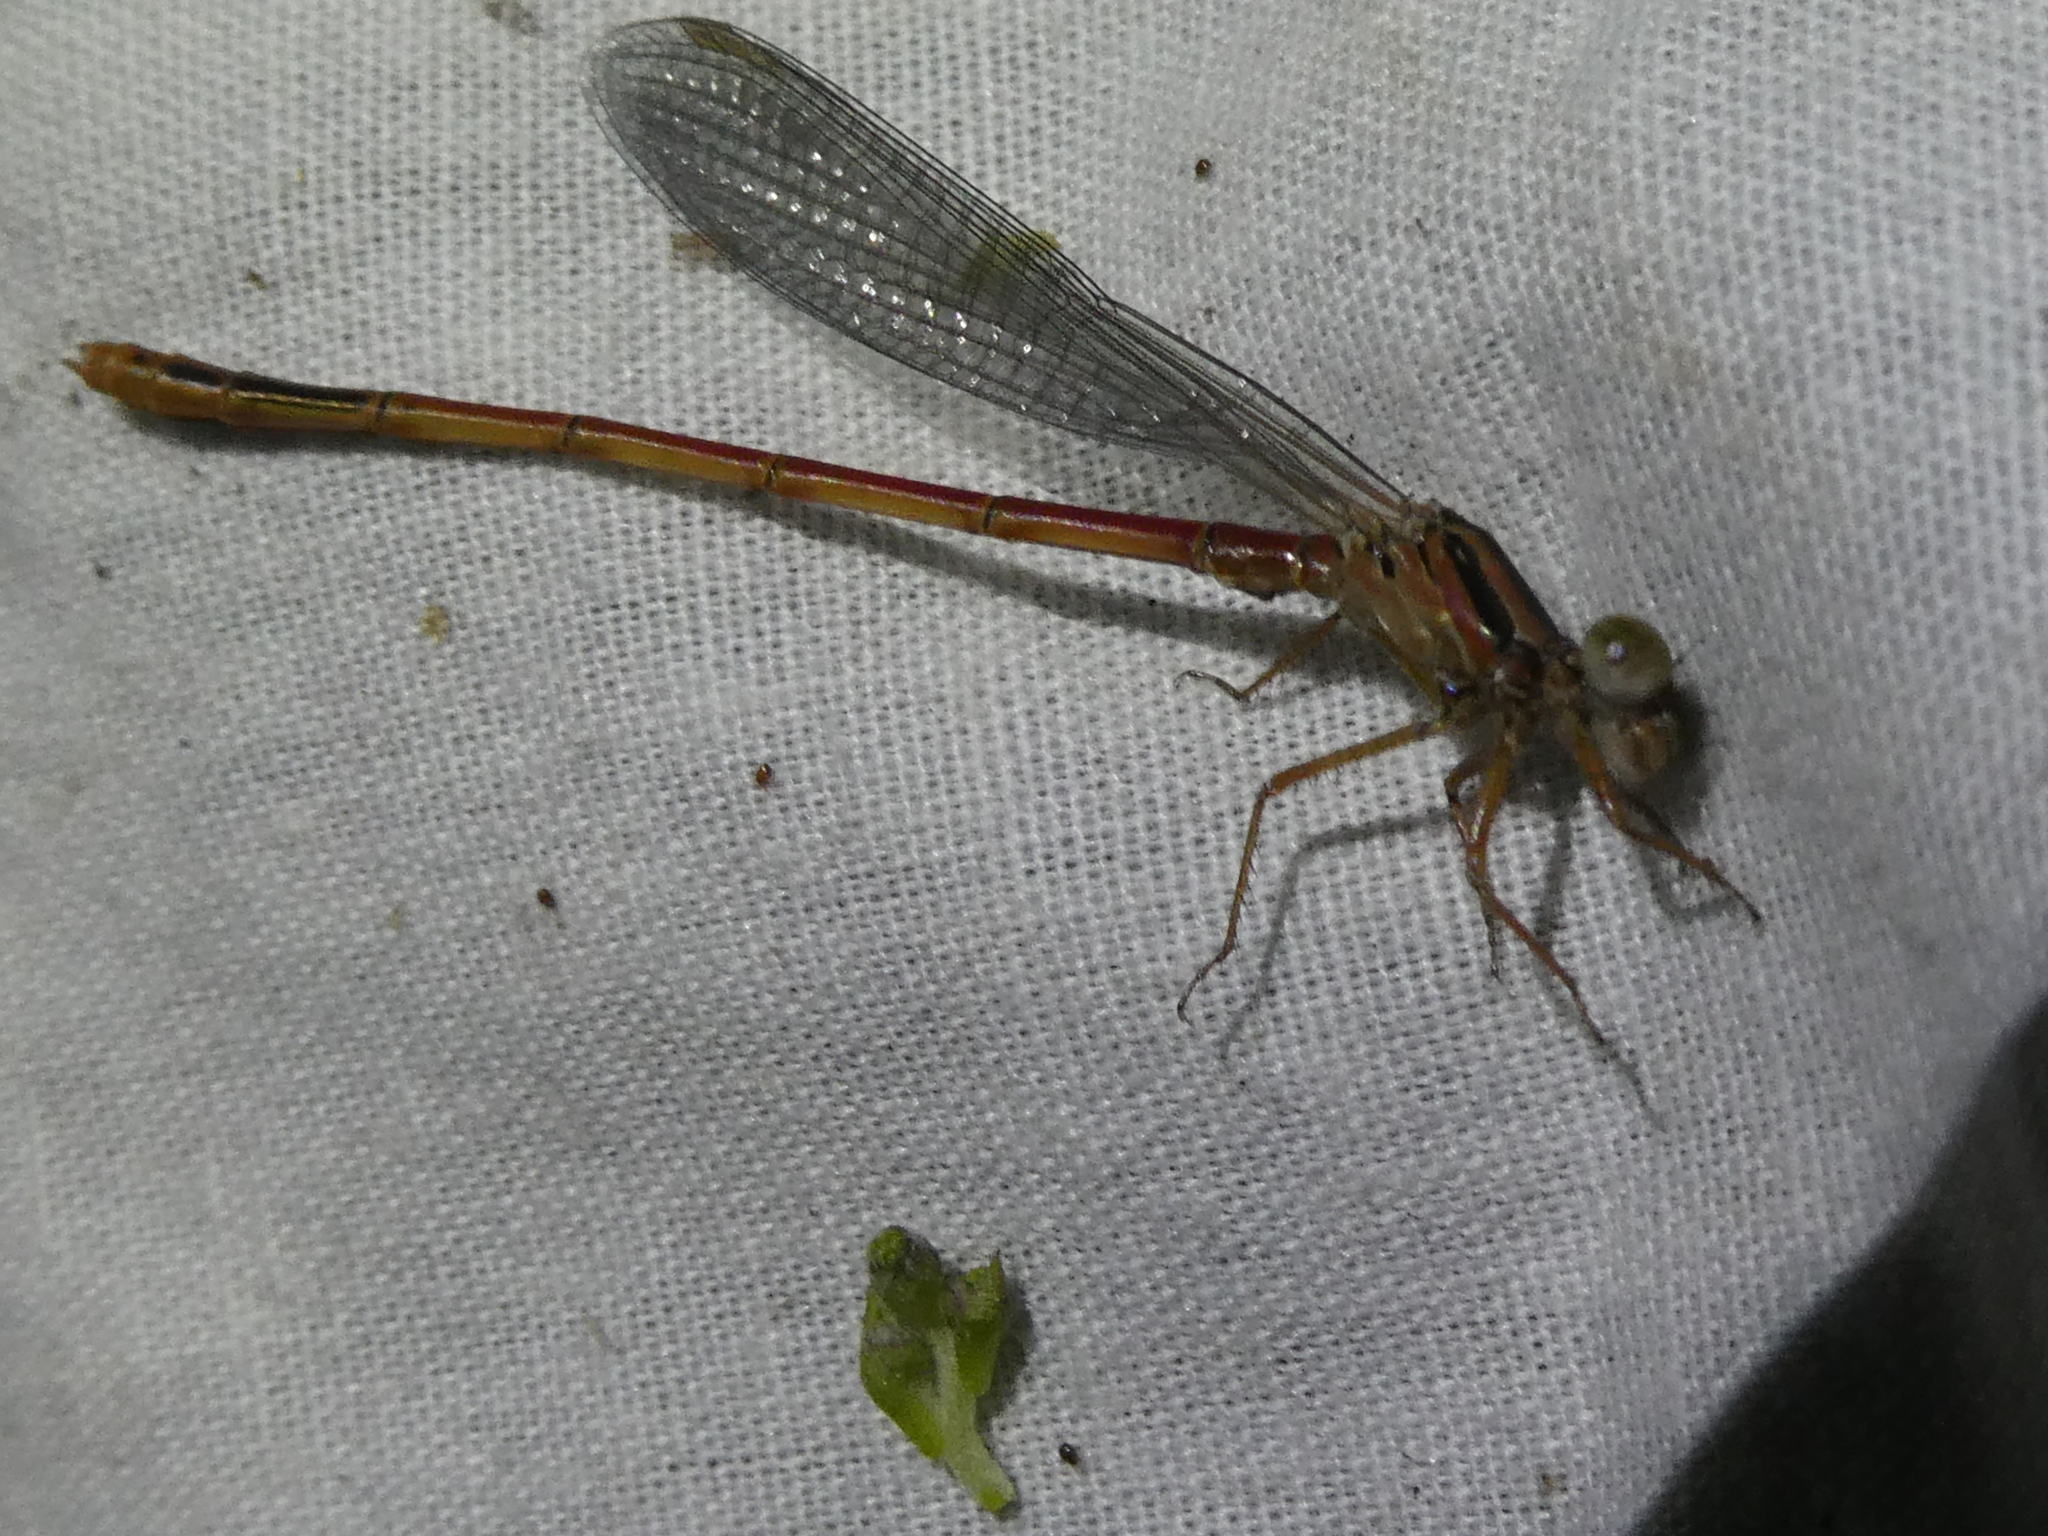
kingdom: Animalia
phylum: Arthropoda
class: Insecta
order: Odonata
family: Coenagrionidae
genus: Xanthocnemis
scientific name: Xanthocnemis zealandica
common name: Common redcoat damselfly
